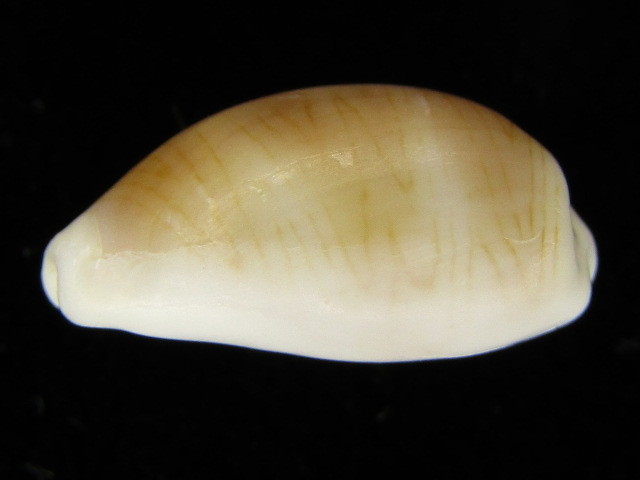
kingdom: Animalia
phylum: Mollusca
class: Gastropoda
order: Littorinimorpha
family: Cypraeidae
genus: Palmadusta
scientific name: Palmadusta clandestina
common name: Cowrie
